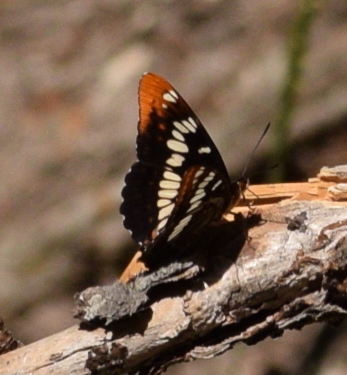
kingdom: Animalia
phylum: Arthropoda
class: Insecta
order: Lepidoptera
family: Nymphalidae
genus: Limenitis
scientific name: Limenitis lorquini
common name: Lorquin's admiral
